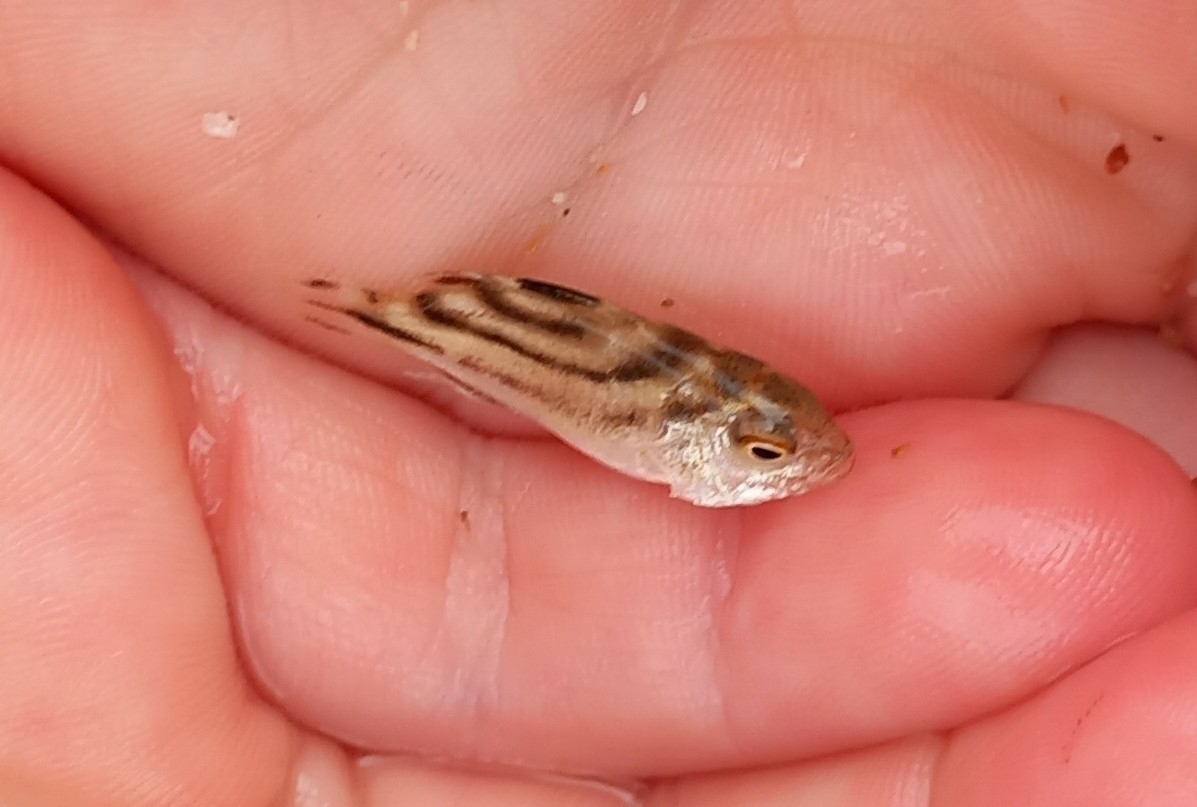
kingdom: Animalia
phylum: Chordata
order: Perciformes
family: Terapontidae
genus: Terapon
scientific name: Terapon jarbua
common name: Jarbua terapon
